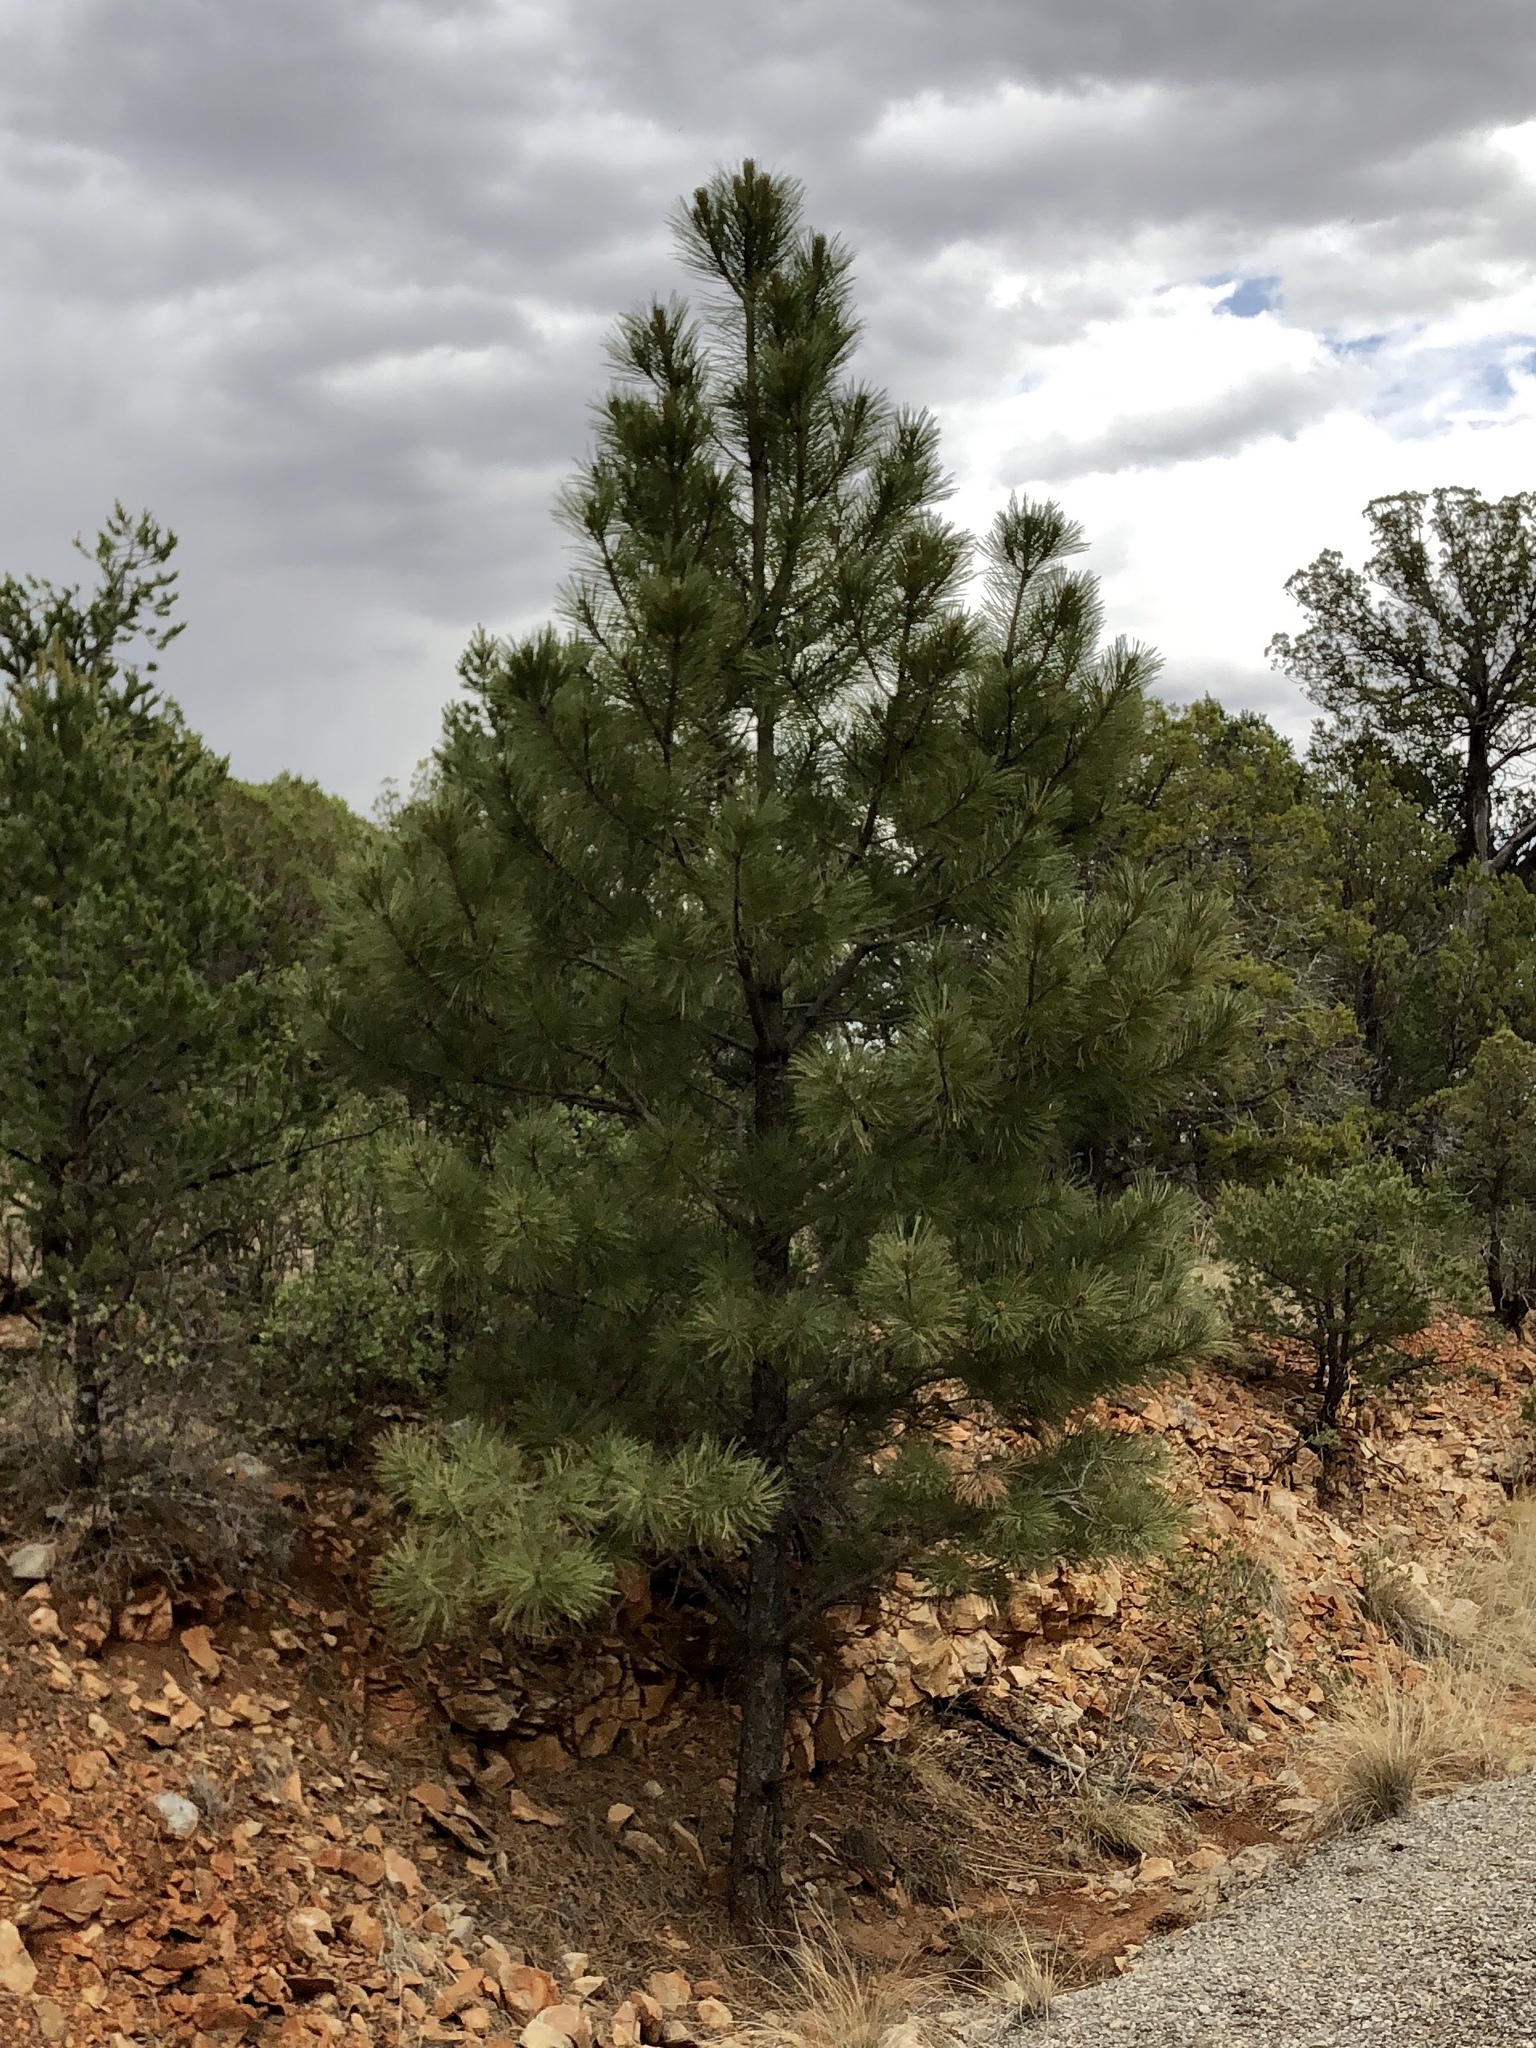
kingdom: Plantae
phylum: Tracheophyta
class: Pinopsida
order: Pinales
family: Pinaceae
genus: Pinus
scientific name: Pinus ponderosa
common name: Western yellow-pine
